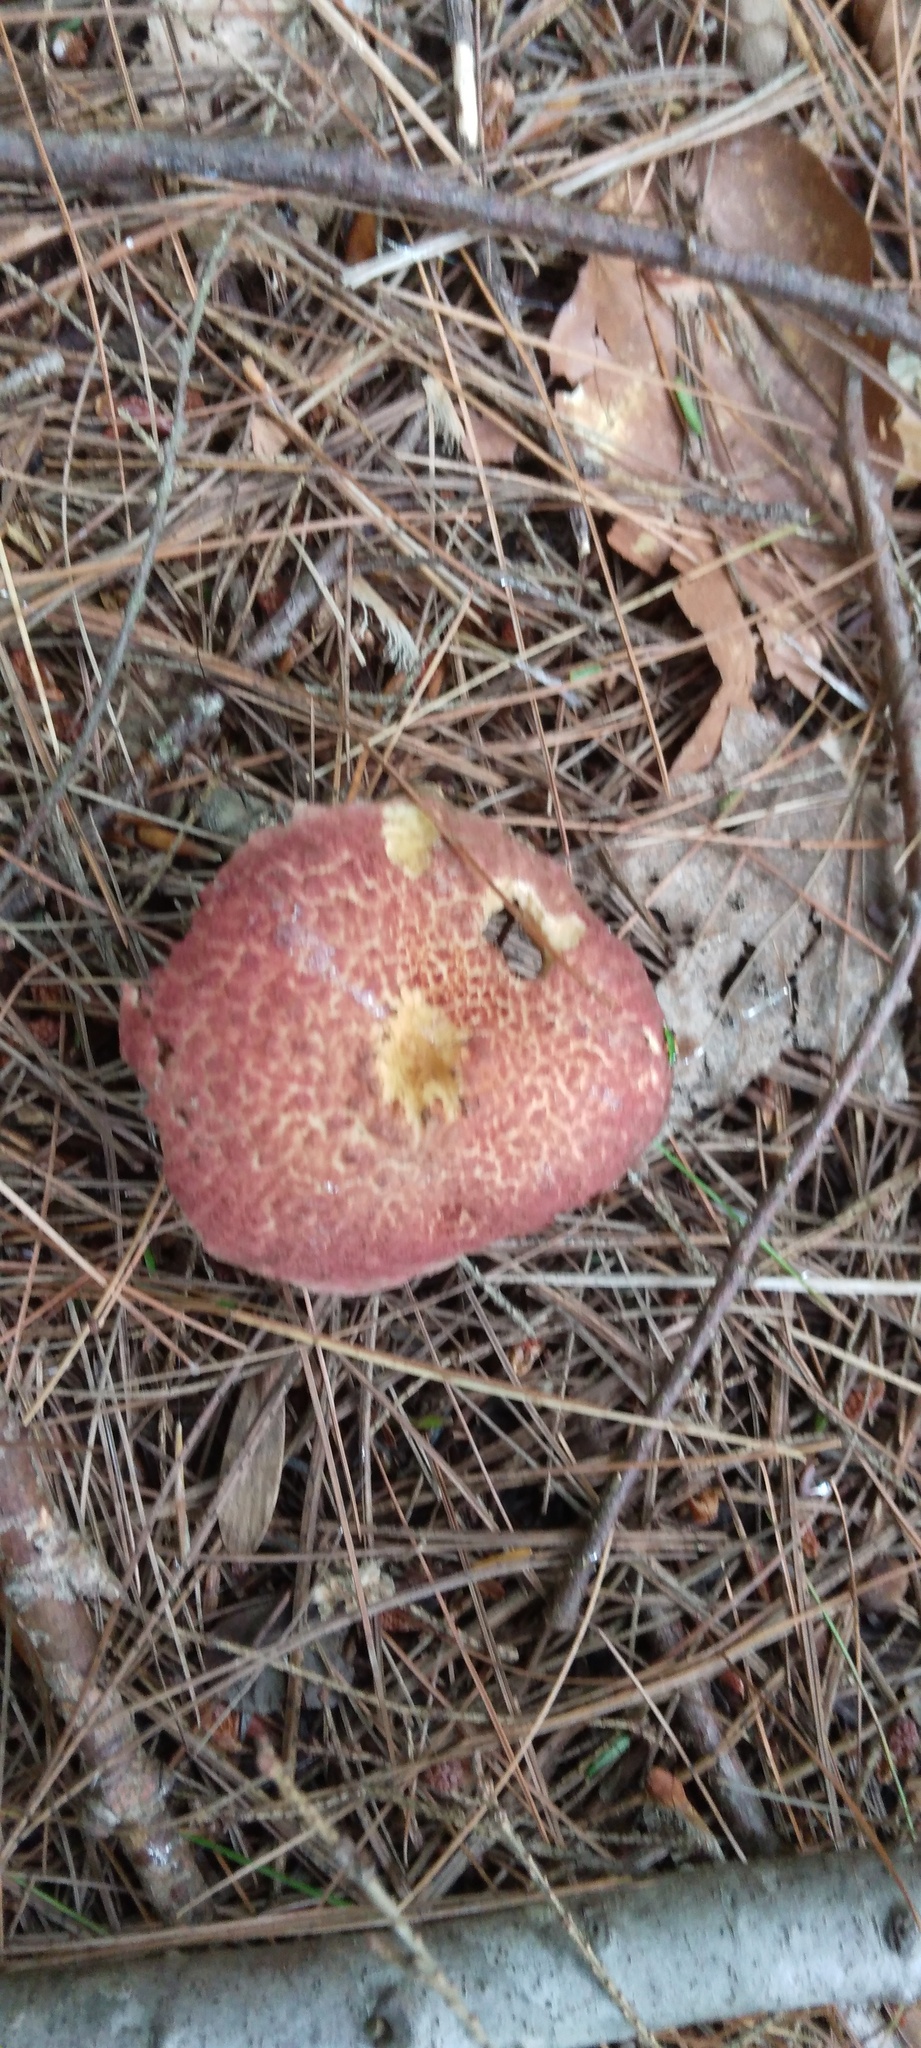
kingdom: Fungi
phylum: Basidiomycota
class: Agaricomycetes
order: Boletales
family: Suillaceae
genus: Suillus
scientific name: Suillus spraguei
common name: Painted suillus
